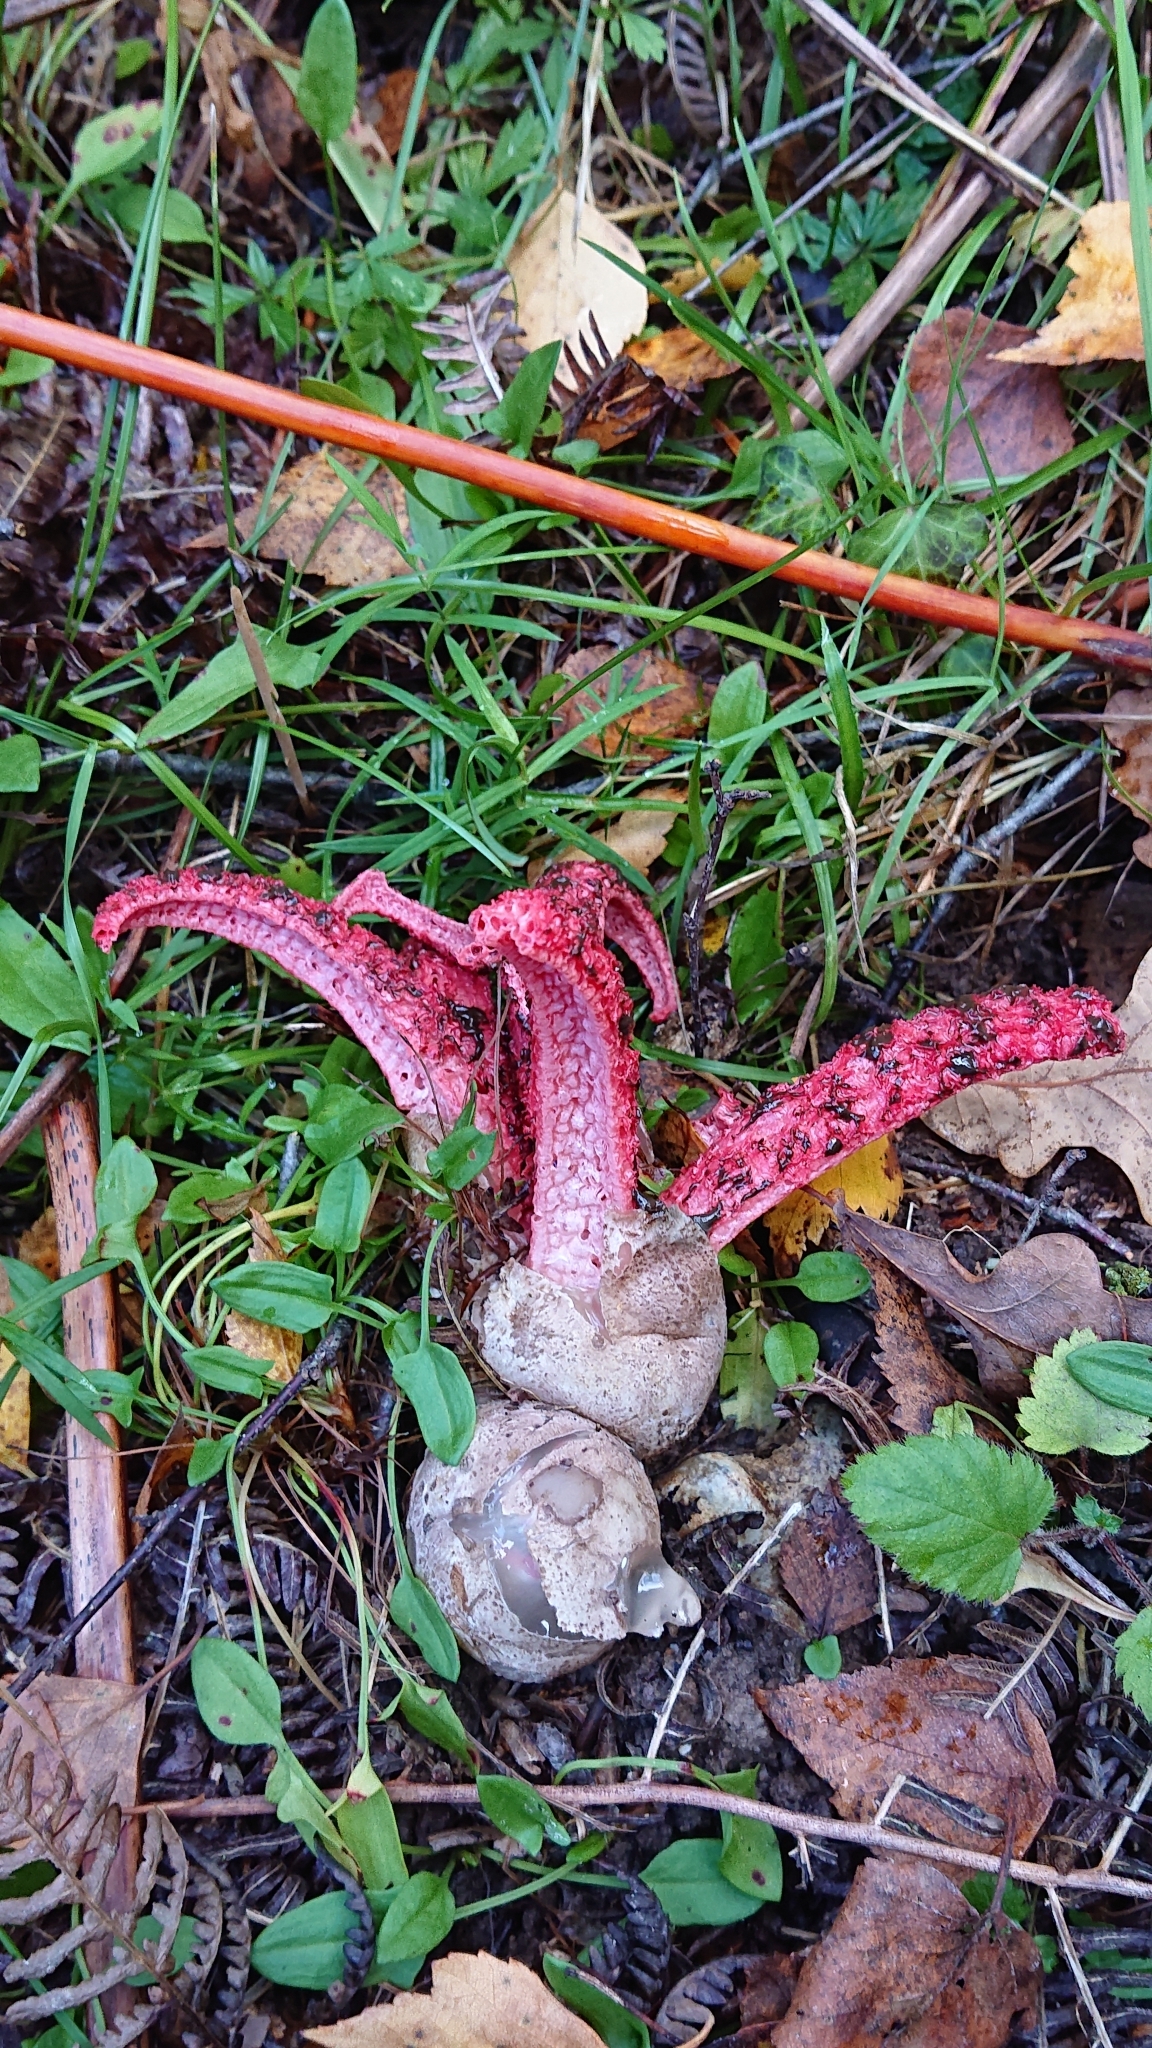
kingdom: Fungi
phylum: Basidiomycota
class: Agaricomycetes
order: Phallales
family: Phallaceae
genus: Clathrus
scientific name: Clathrus archeri
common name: Devil's fingers
